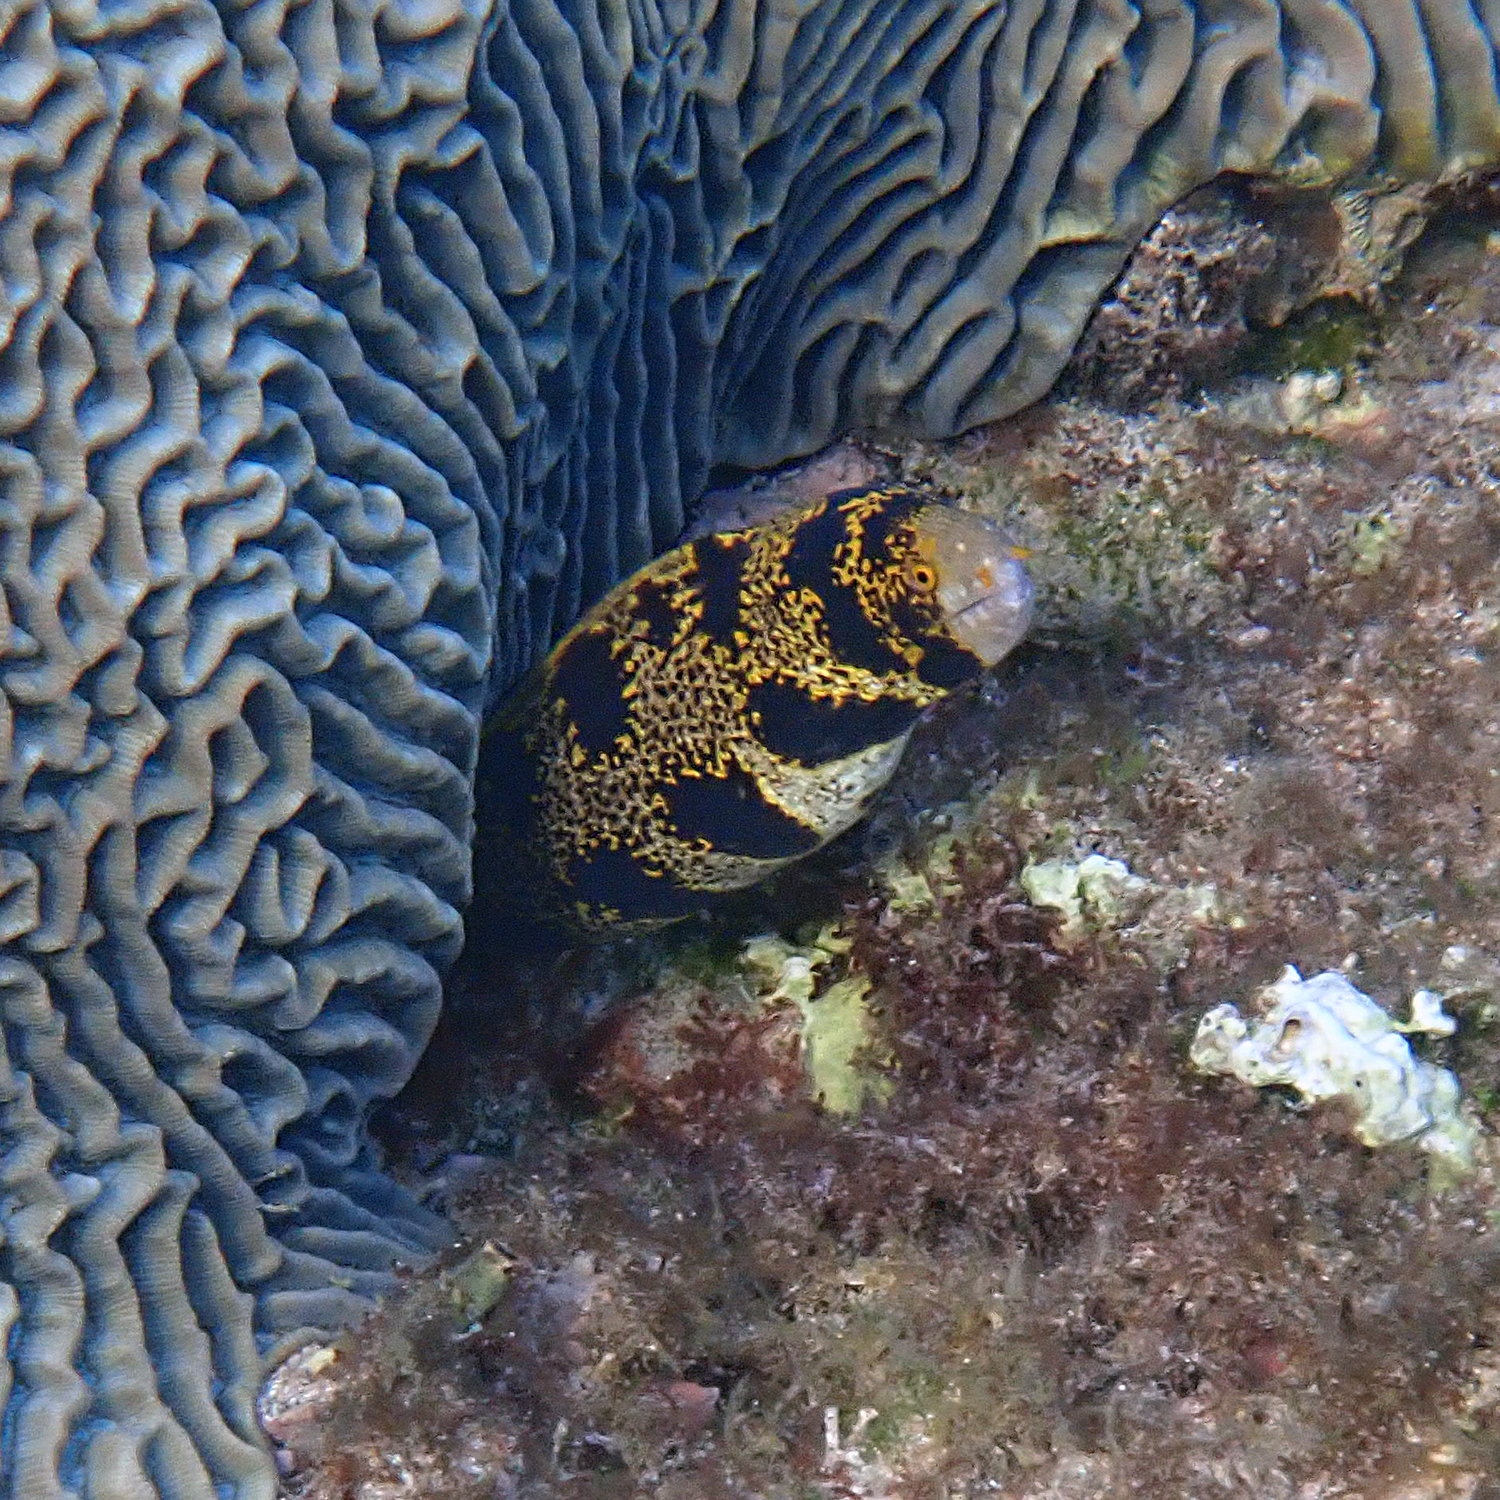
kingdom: Animalia
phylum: Chordata
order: Anguilliformes
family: Muraenidae
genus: Echidna
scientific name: Echidna nebulosa
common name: Snowflake moray
